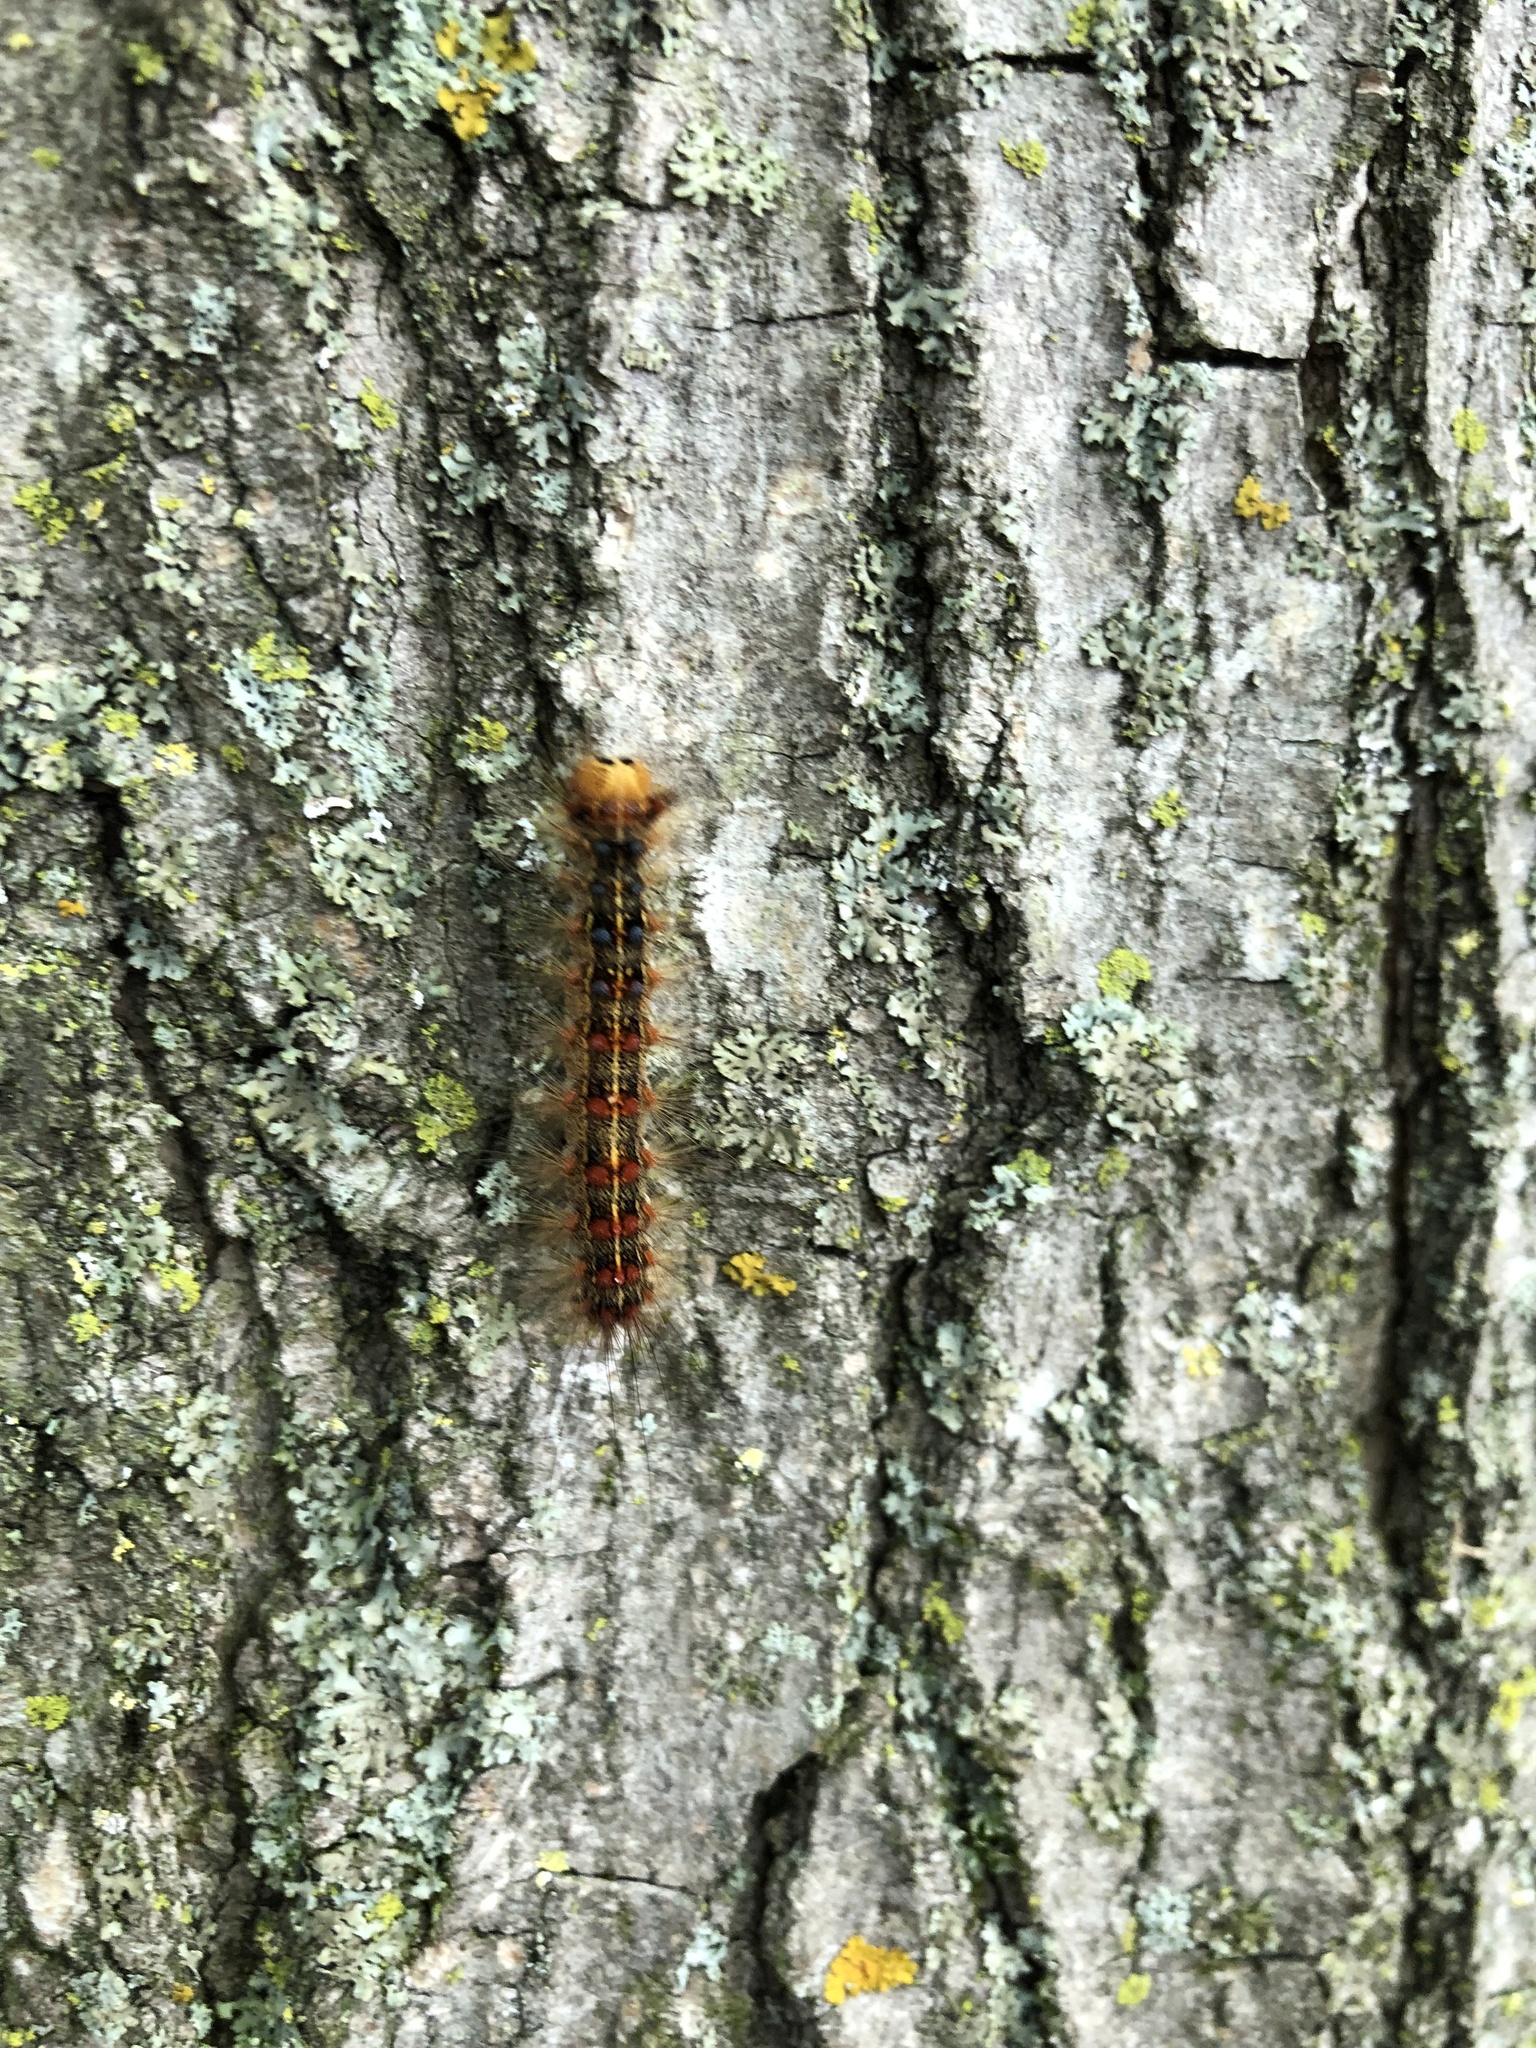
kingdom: Animalia
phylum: Arthropoda
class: Insecta
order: Lepidoptera
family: Erebidae
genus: Lymantria
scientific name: Lymantria dispar
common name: Gypsy moth
